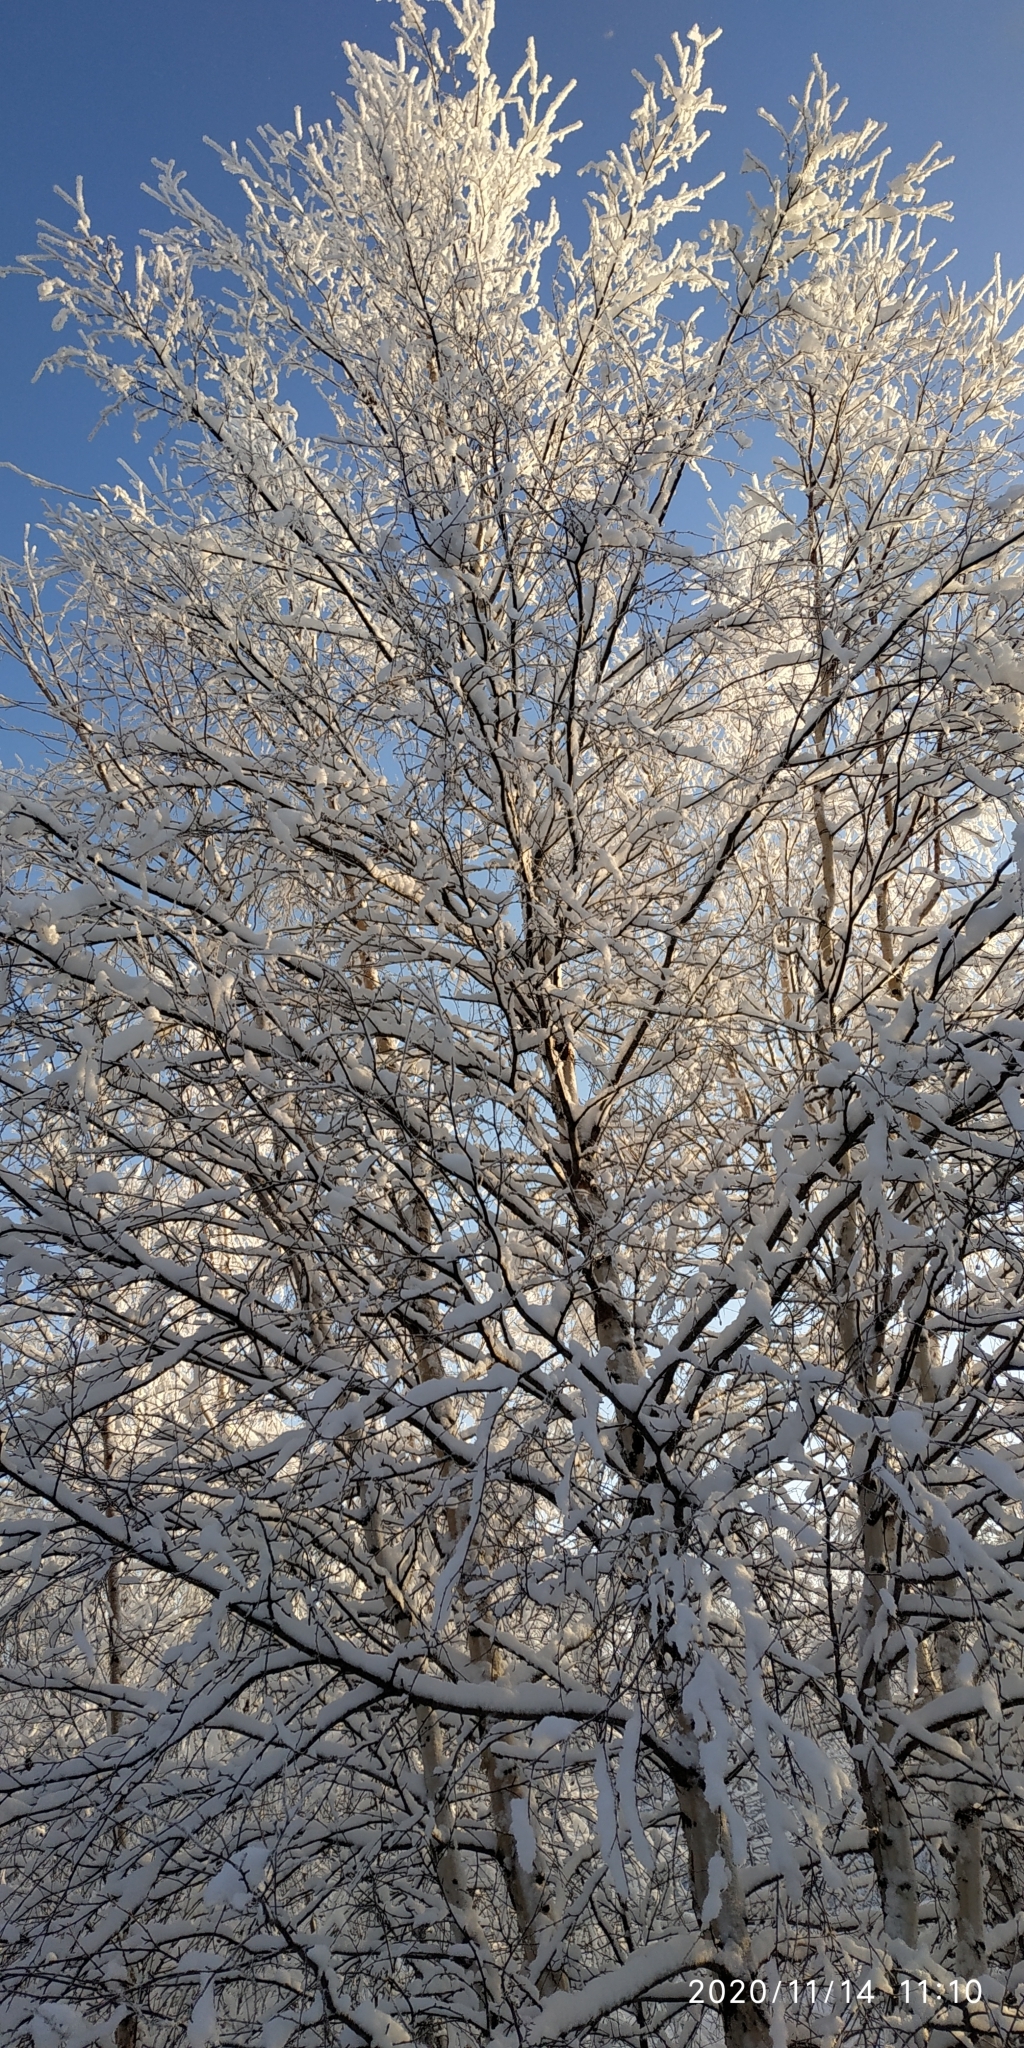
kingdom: Plantae
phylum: Tracheophyta
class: Magnoliopsida
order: Fagales
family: Betulaceae
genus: Betula
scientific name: Betula pubescens
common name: Downy birch
